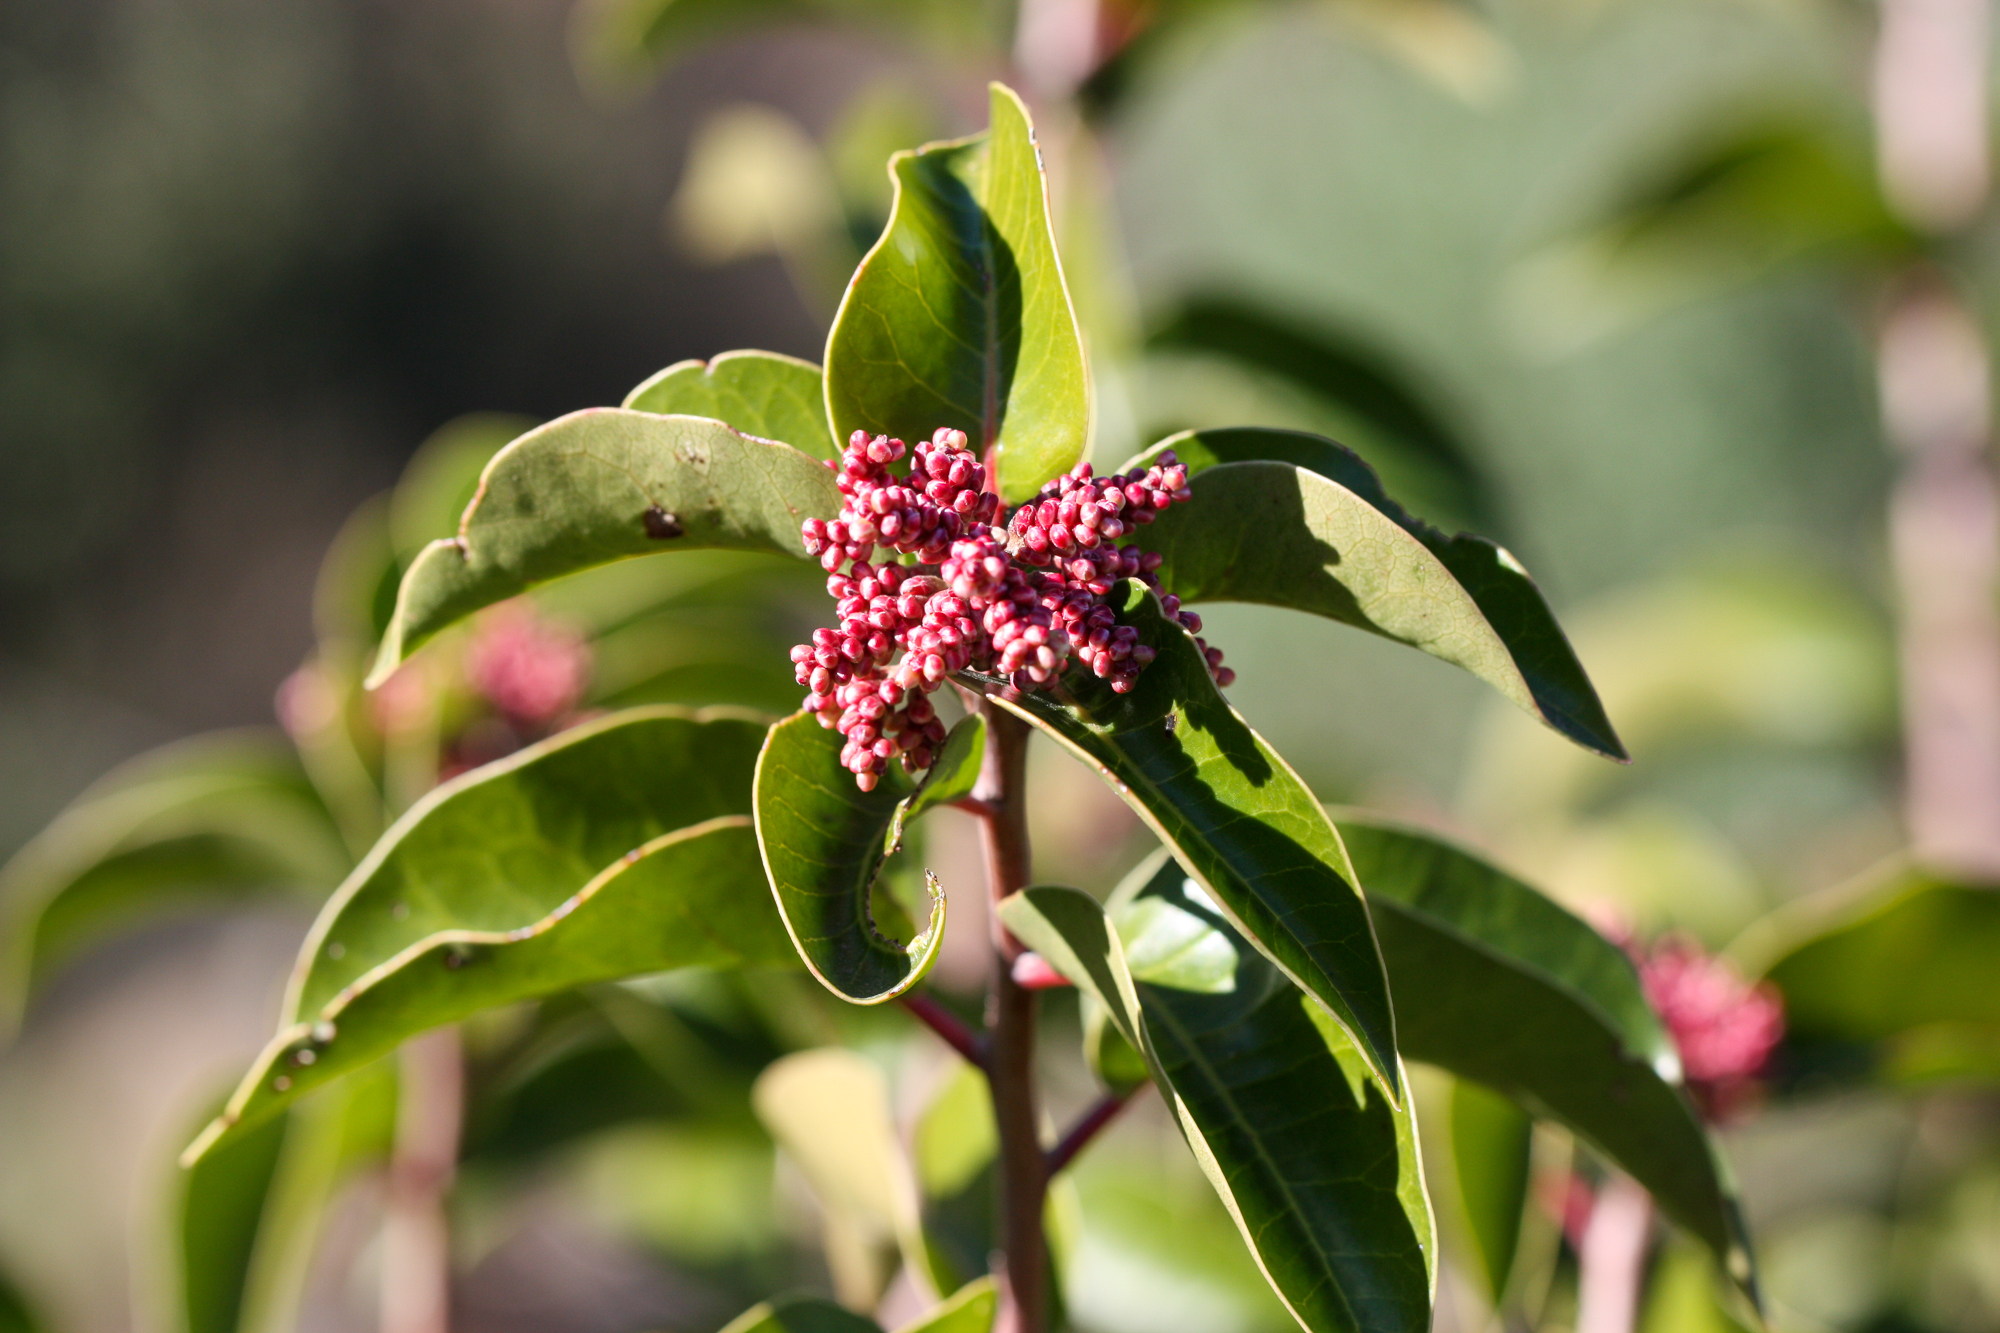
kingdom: Plantae
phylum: Tracheophyta
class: Magnoliopsida
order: Sapindales
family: Anacardiaceae
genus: Rhus
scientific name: Rhus ovata
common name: Sugar sumac
